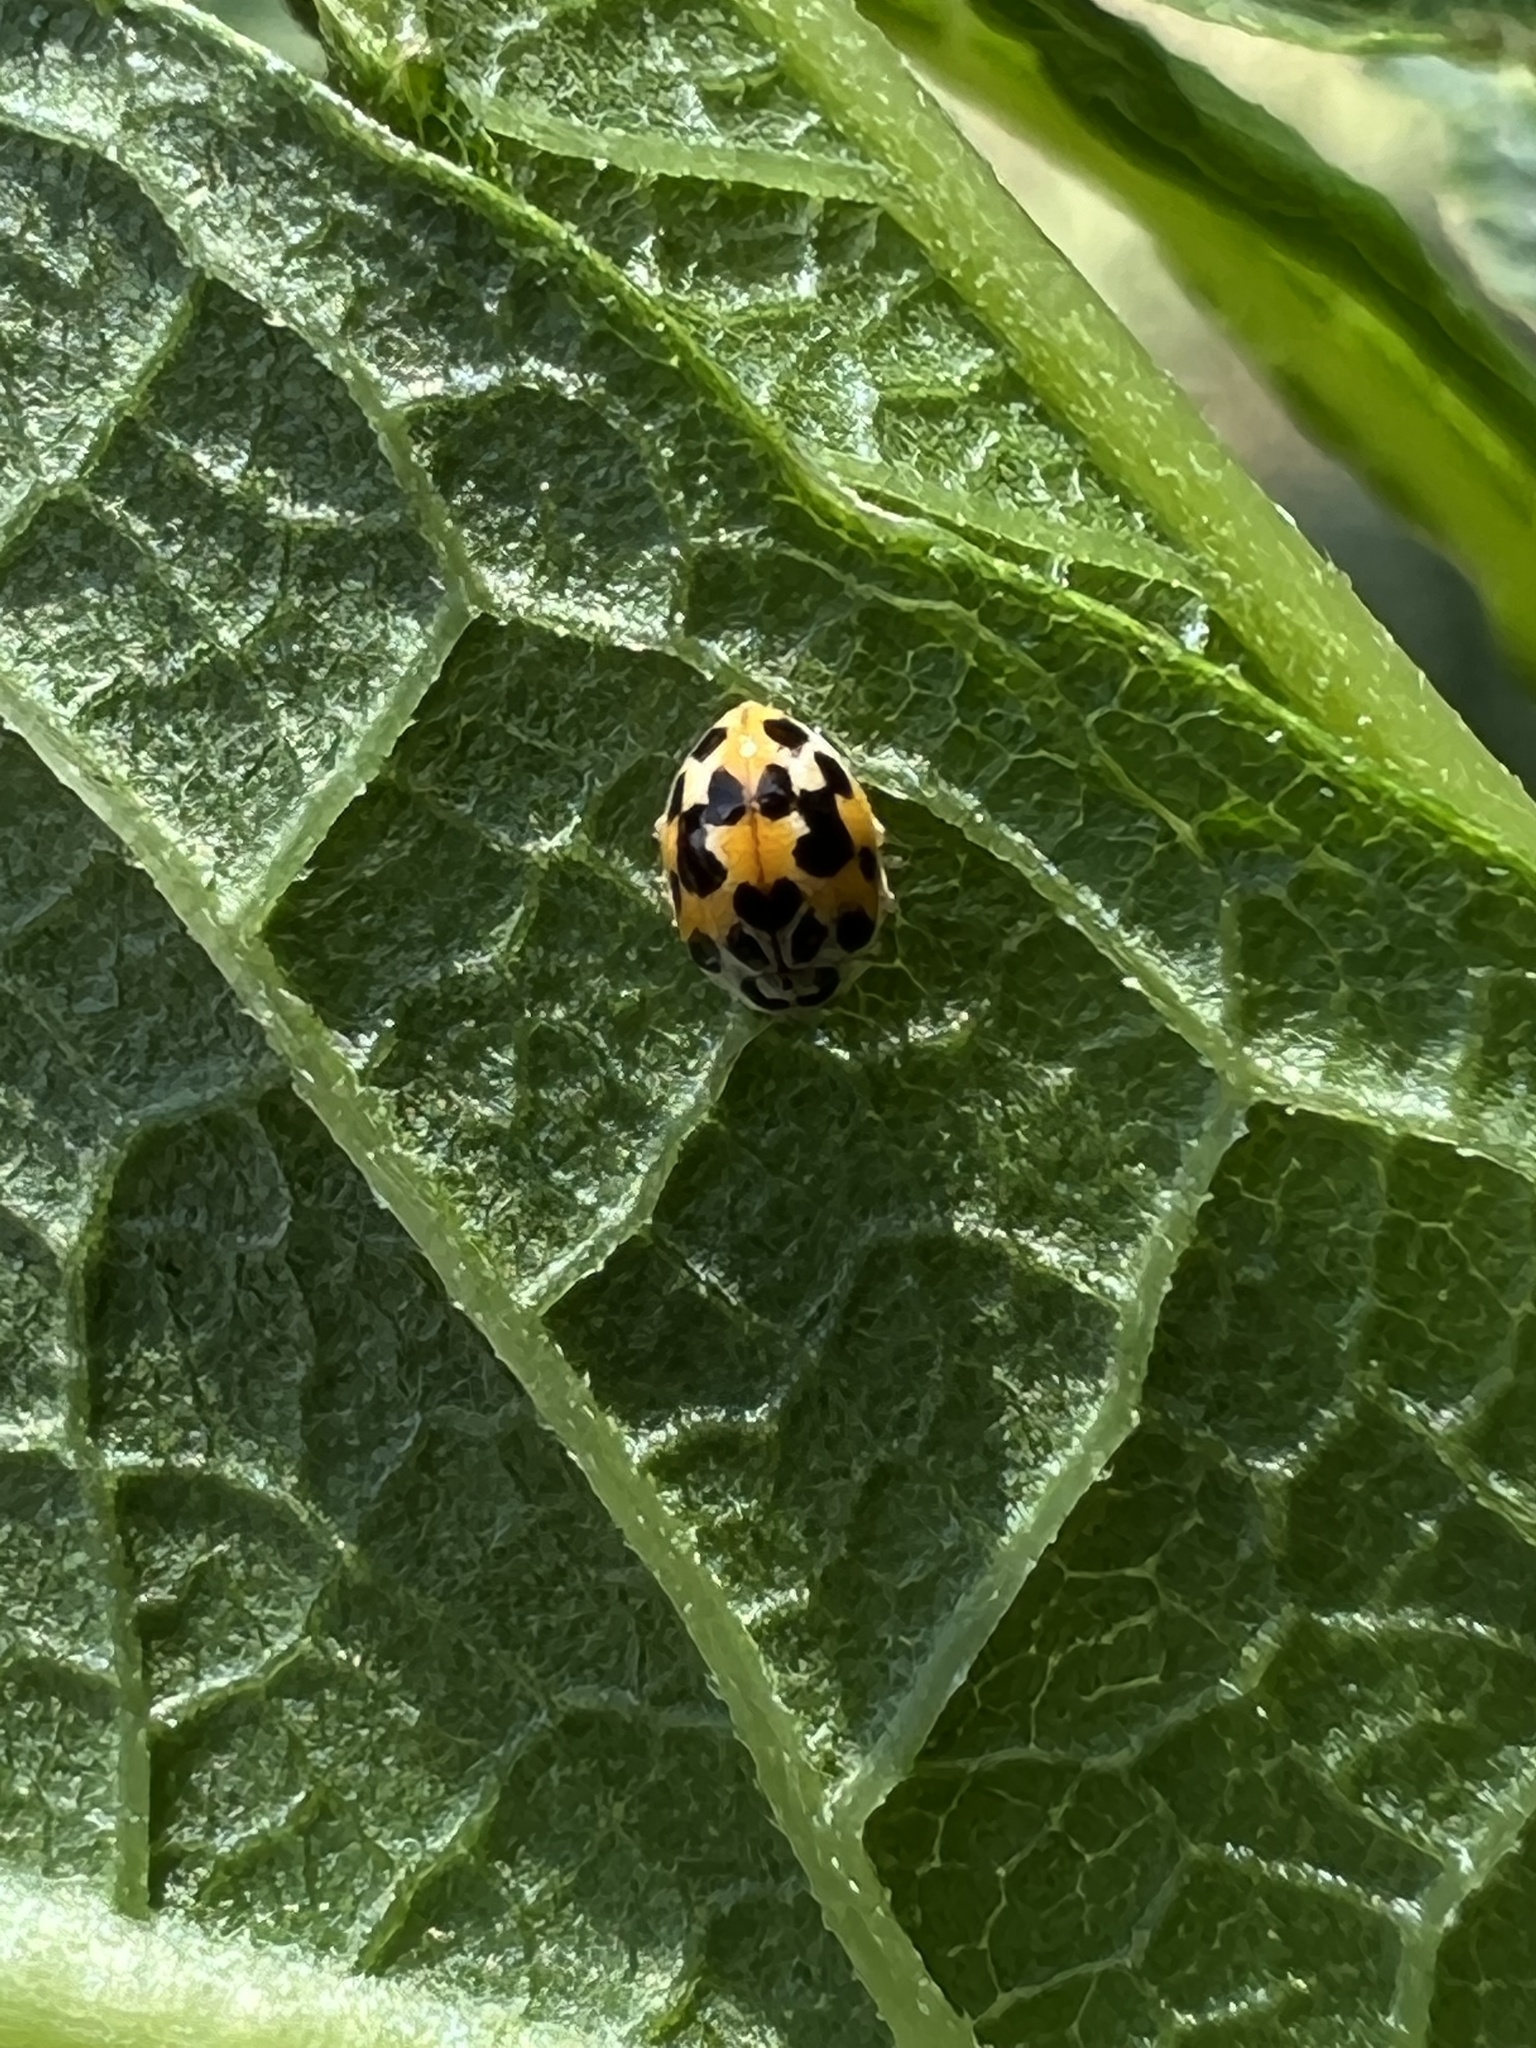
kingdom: Animalia
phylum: Arthropoda
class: Insecta
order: Coleoptera
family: Coccinellidae
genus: Psyllobora
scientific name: Psyllobora vigintimaculata
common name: Ladybird beetle
